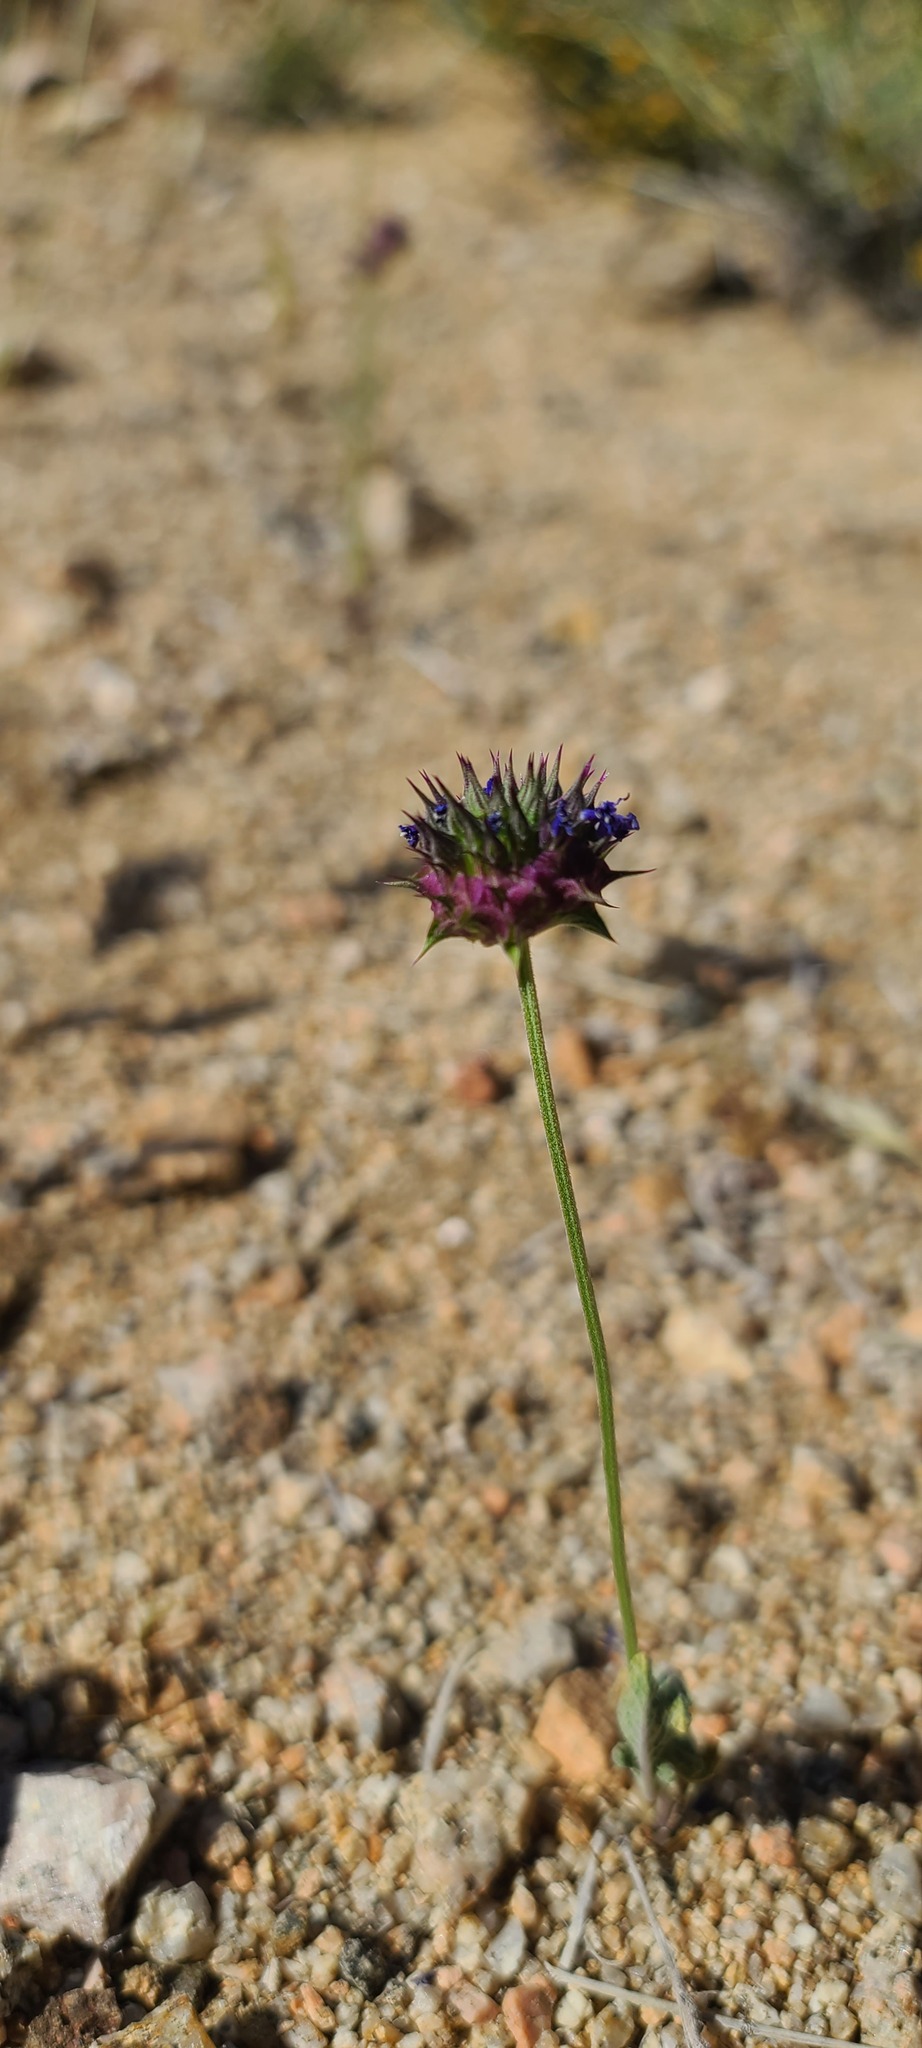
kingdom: Plantae
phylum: Tracheophyta
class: Magnoliopsida
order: Lamiales
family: Lamiaceae
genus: Salvia
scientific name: Salvia columbariae
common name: Chia
